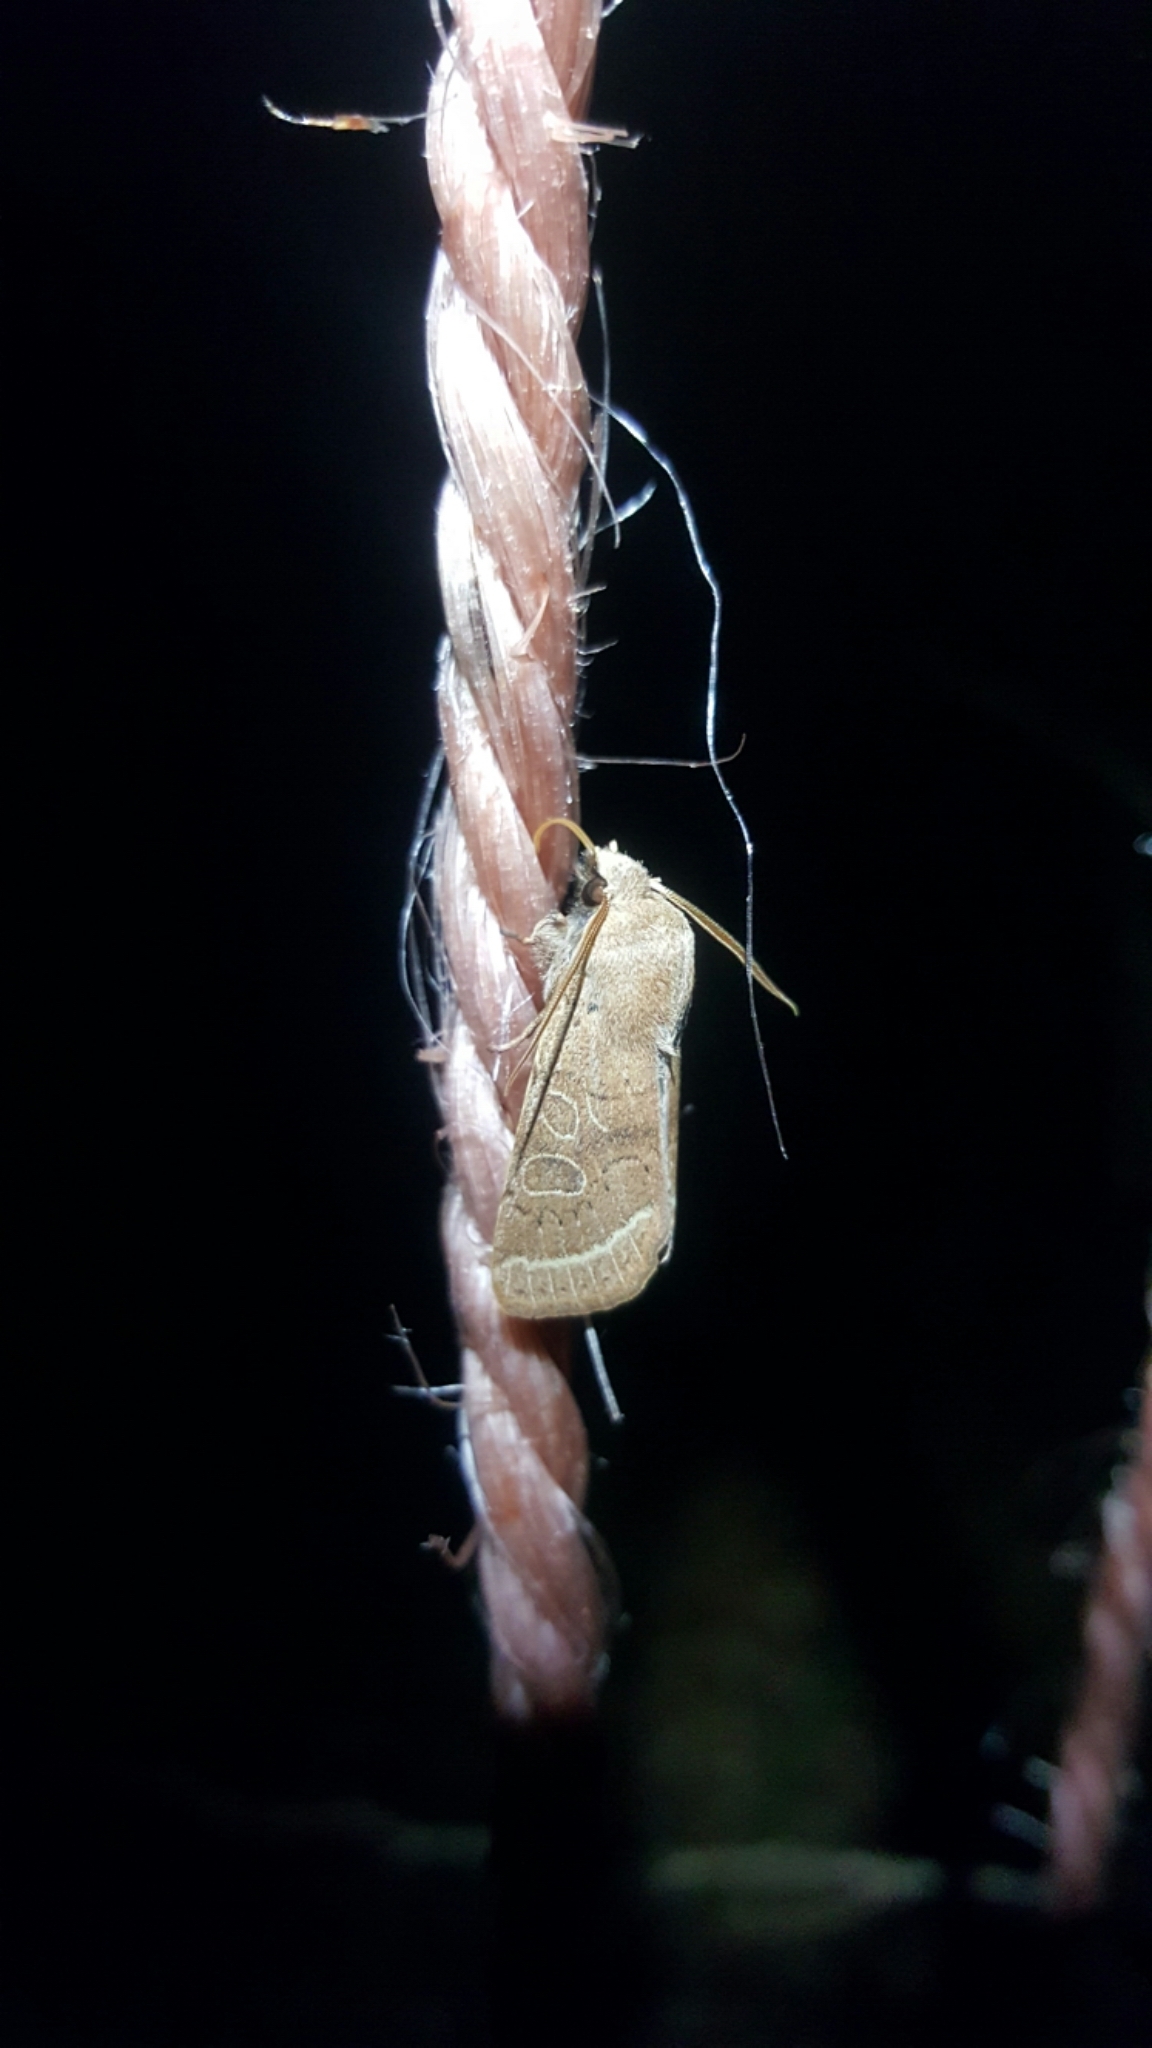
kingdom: Animalia
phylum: Arthropoda
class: Insecta
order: Lepidoptera
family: Noctuidae
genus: Orthosia
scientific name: Orthosia cerasi
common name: Common quaker
